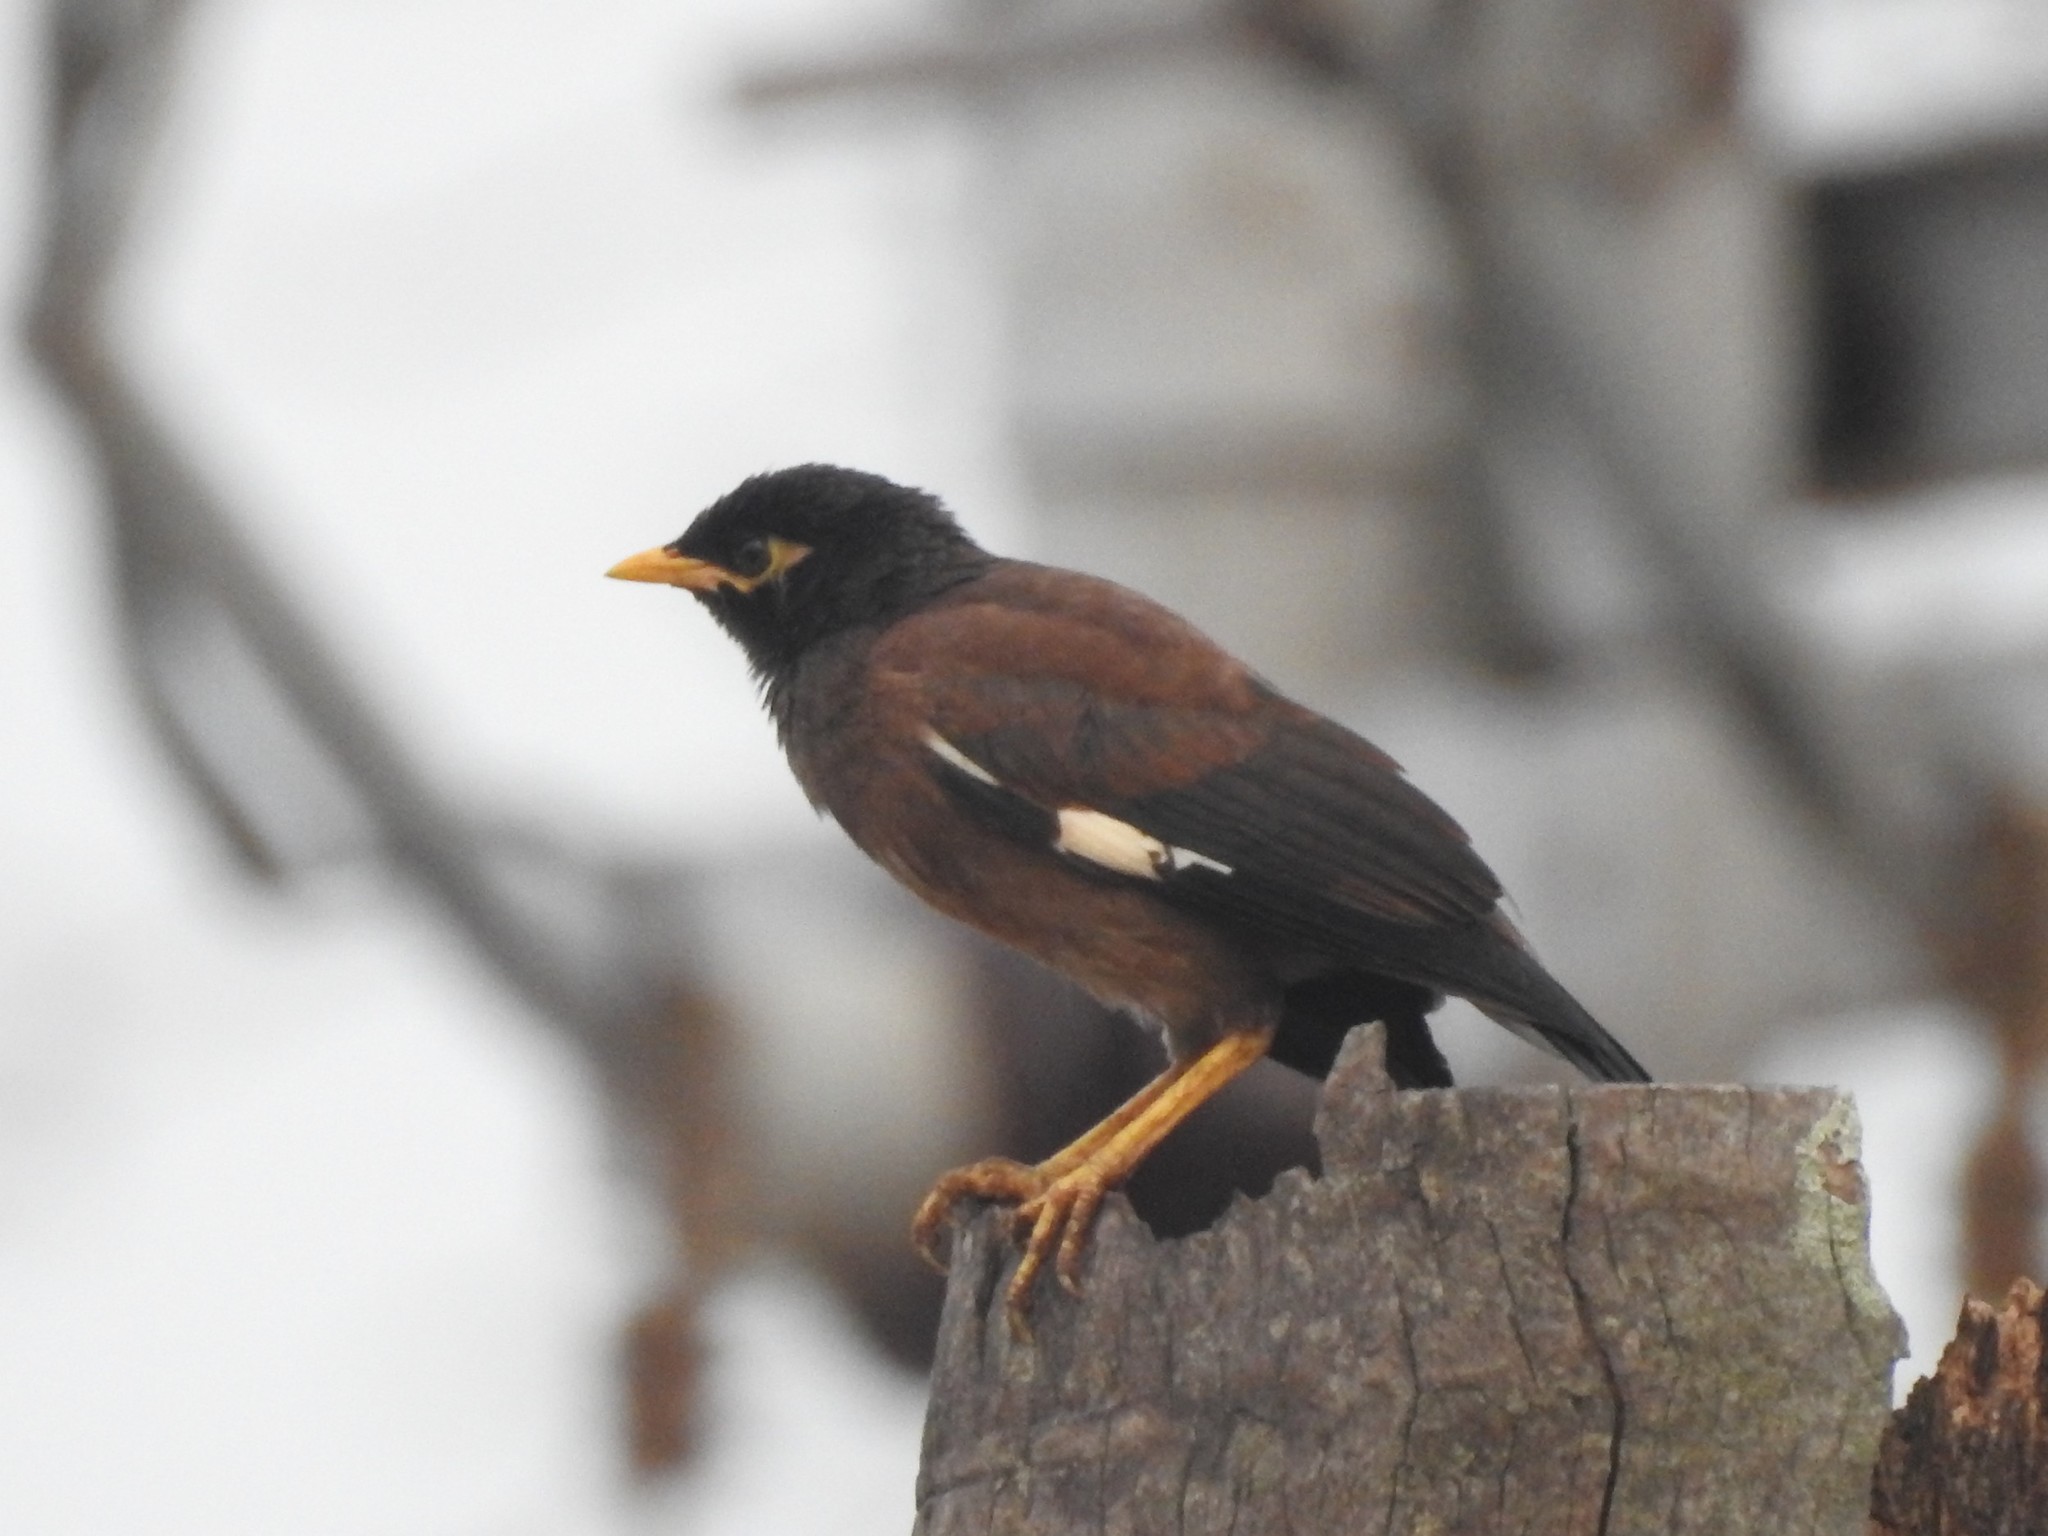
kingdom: Animalia
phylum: Chordata
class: Aves
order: Passeriformes
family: Sturnidae
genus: Acridotheres
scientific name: Acridotheres tristis
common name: Common myna
